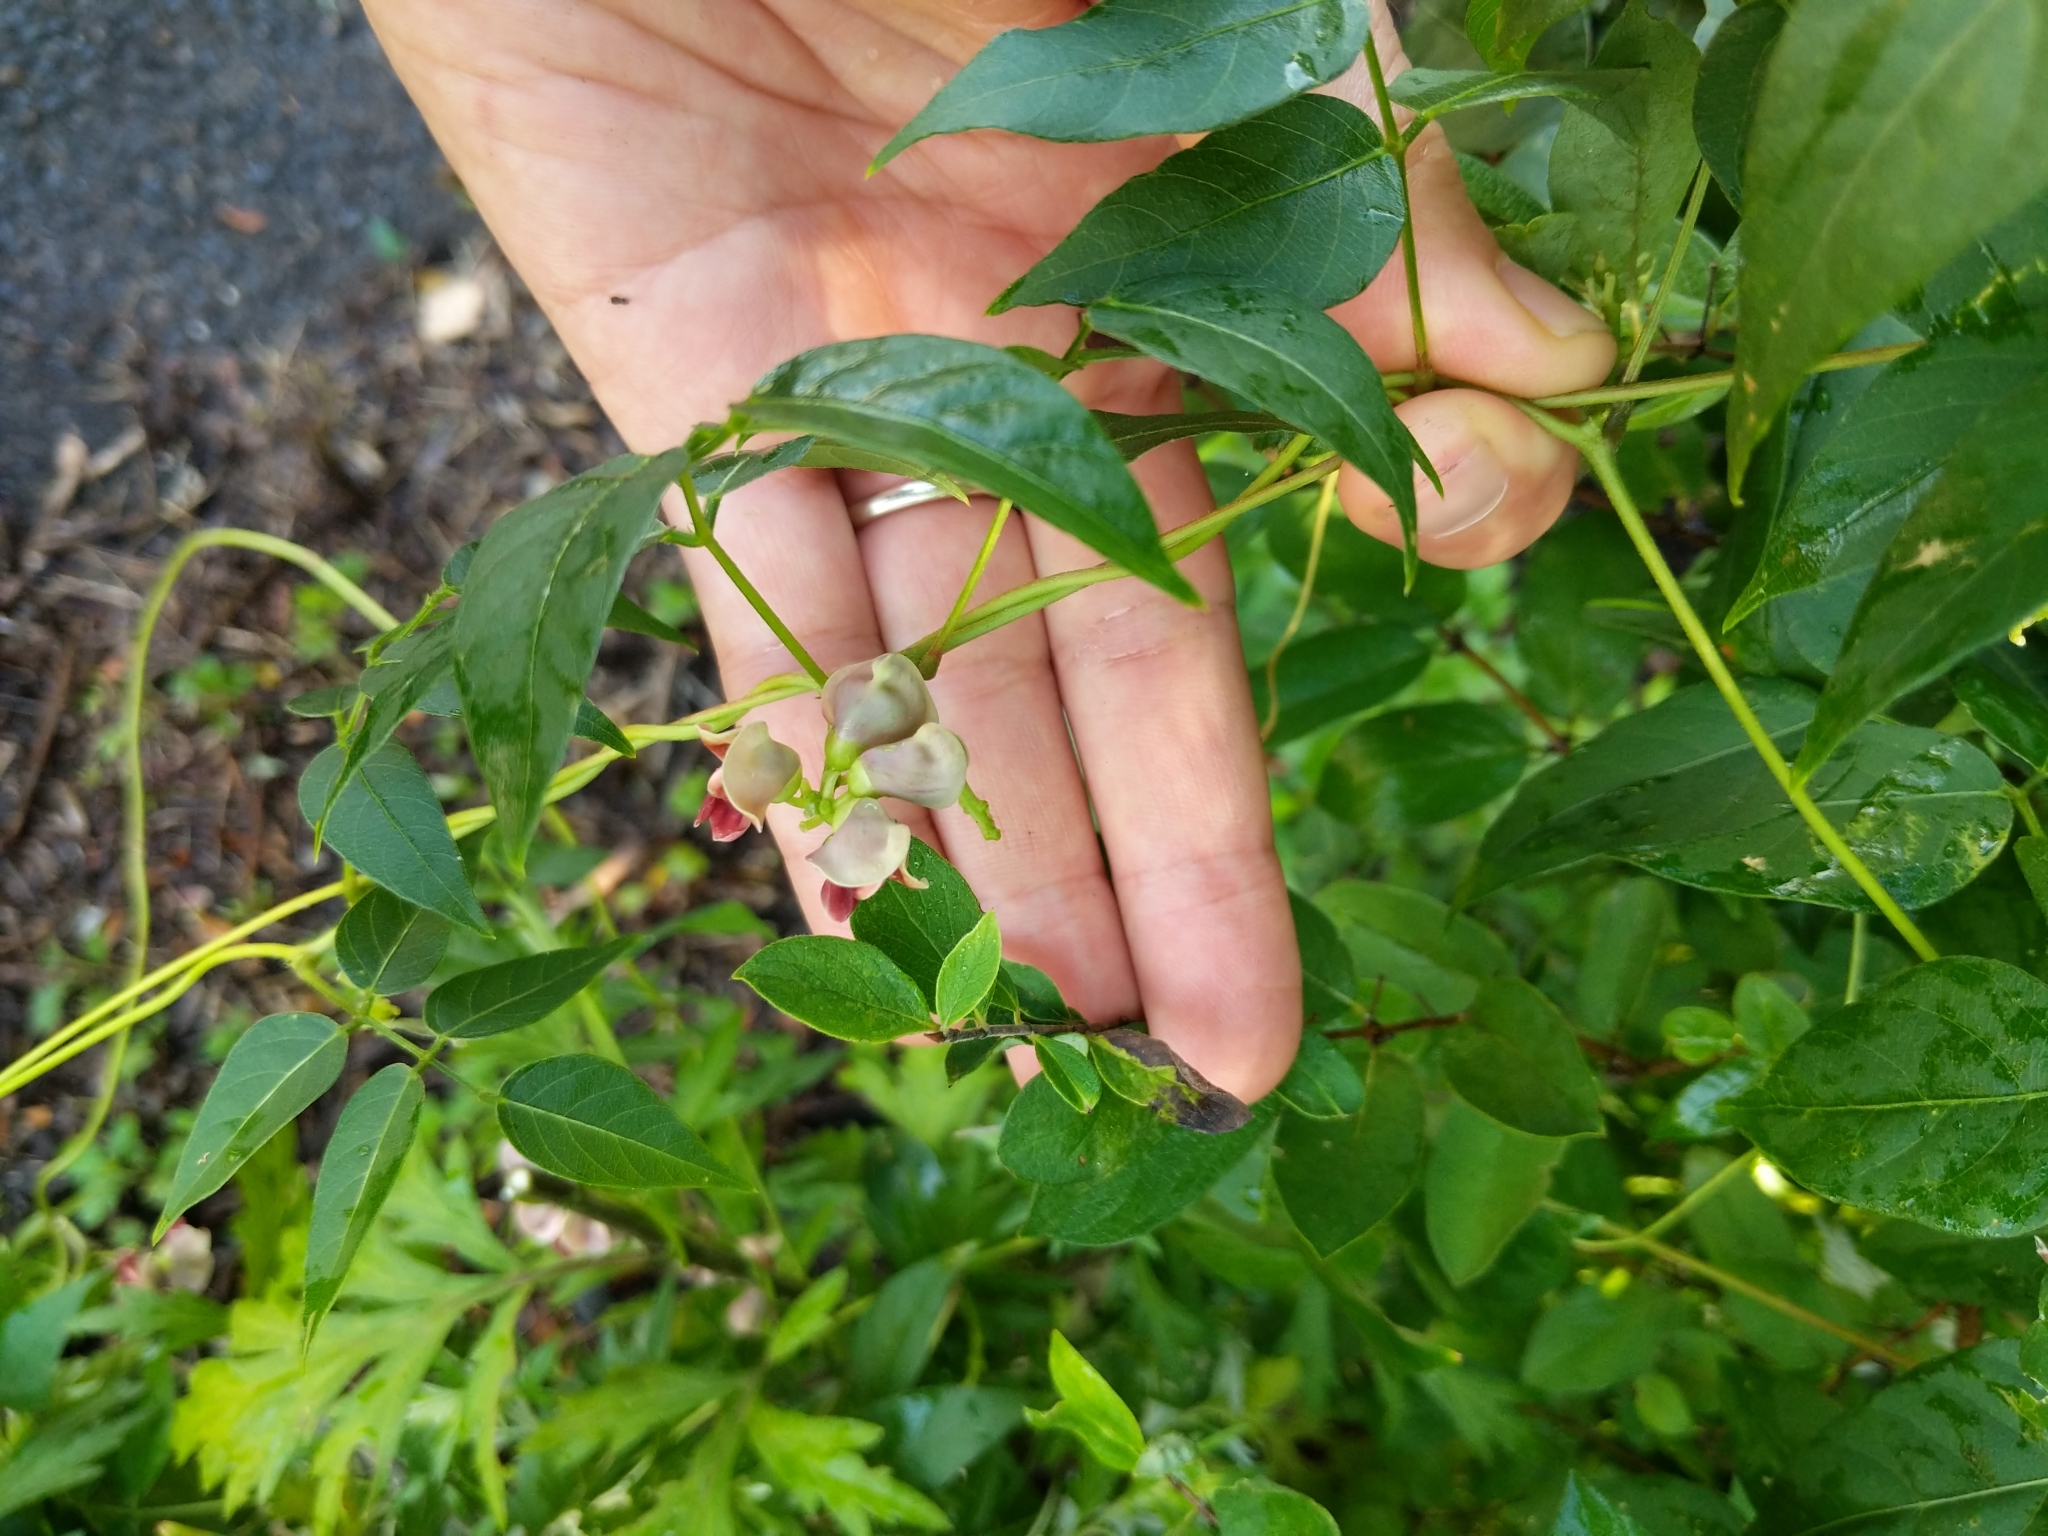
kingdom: Plantae
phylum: Tracheophyta
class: Magnoliopsida
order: Fabales
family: Fabaceae
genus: Apios
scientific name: Apios americana
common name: American potato-bean
